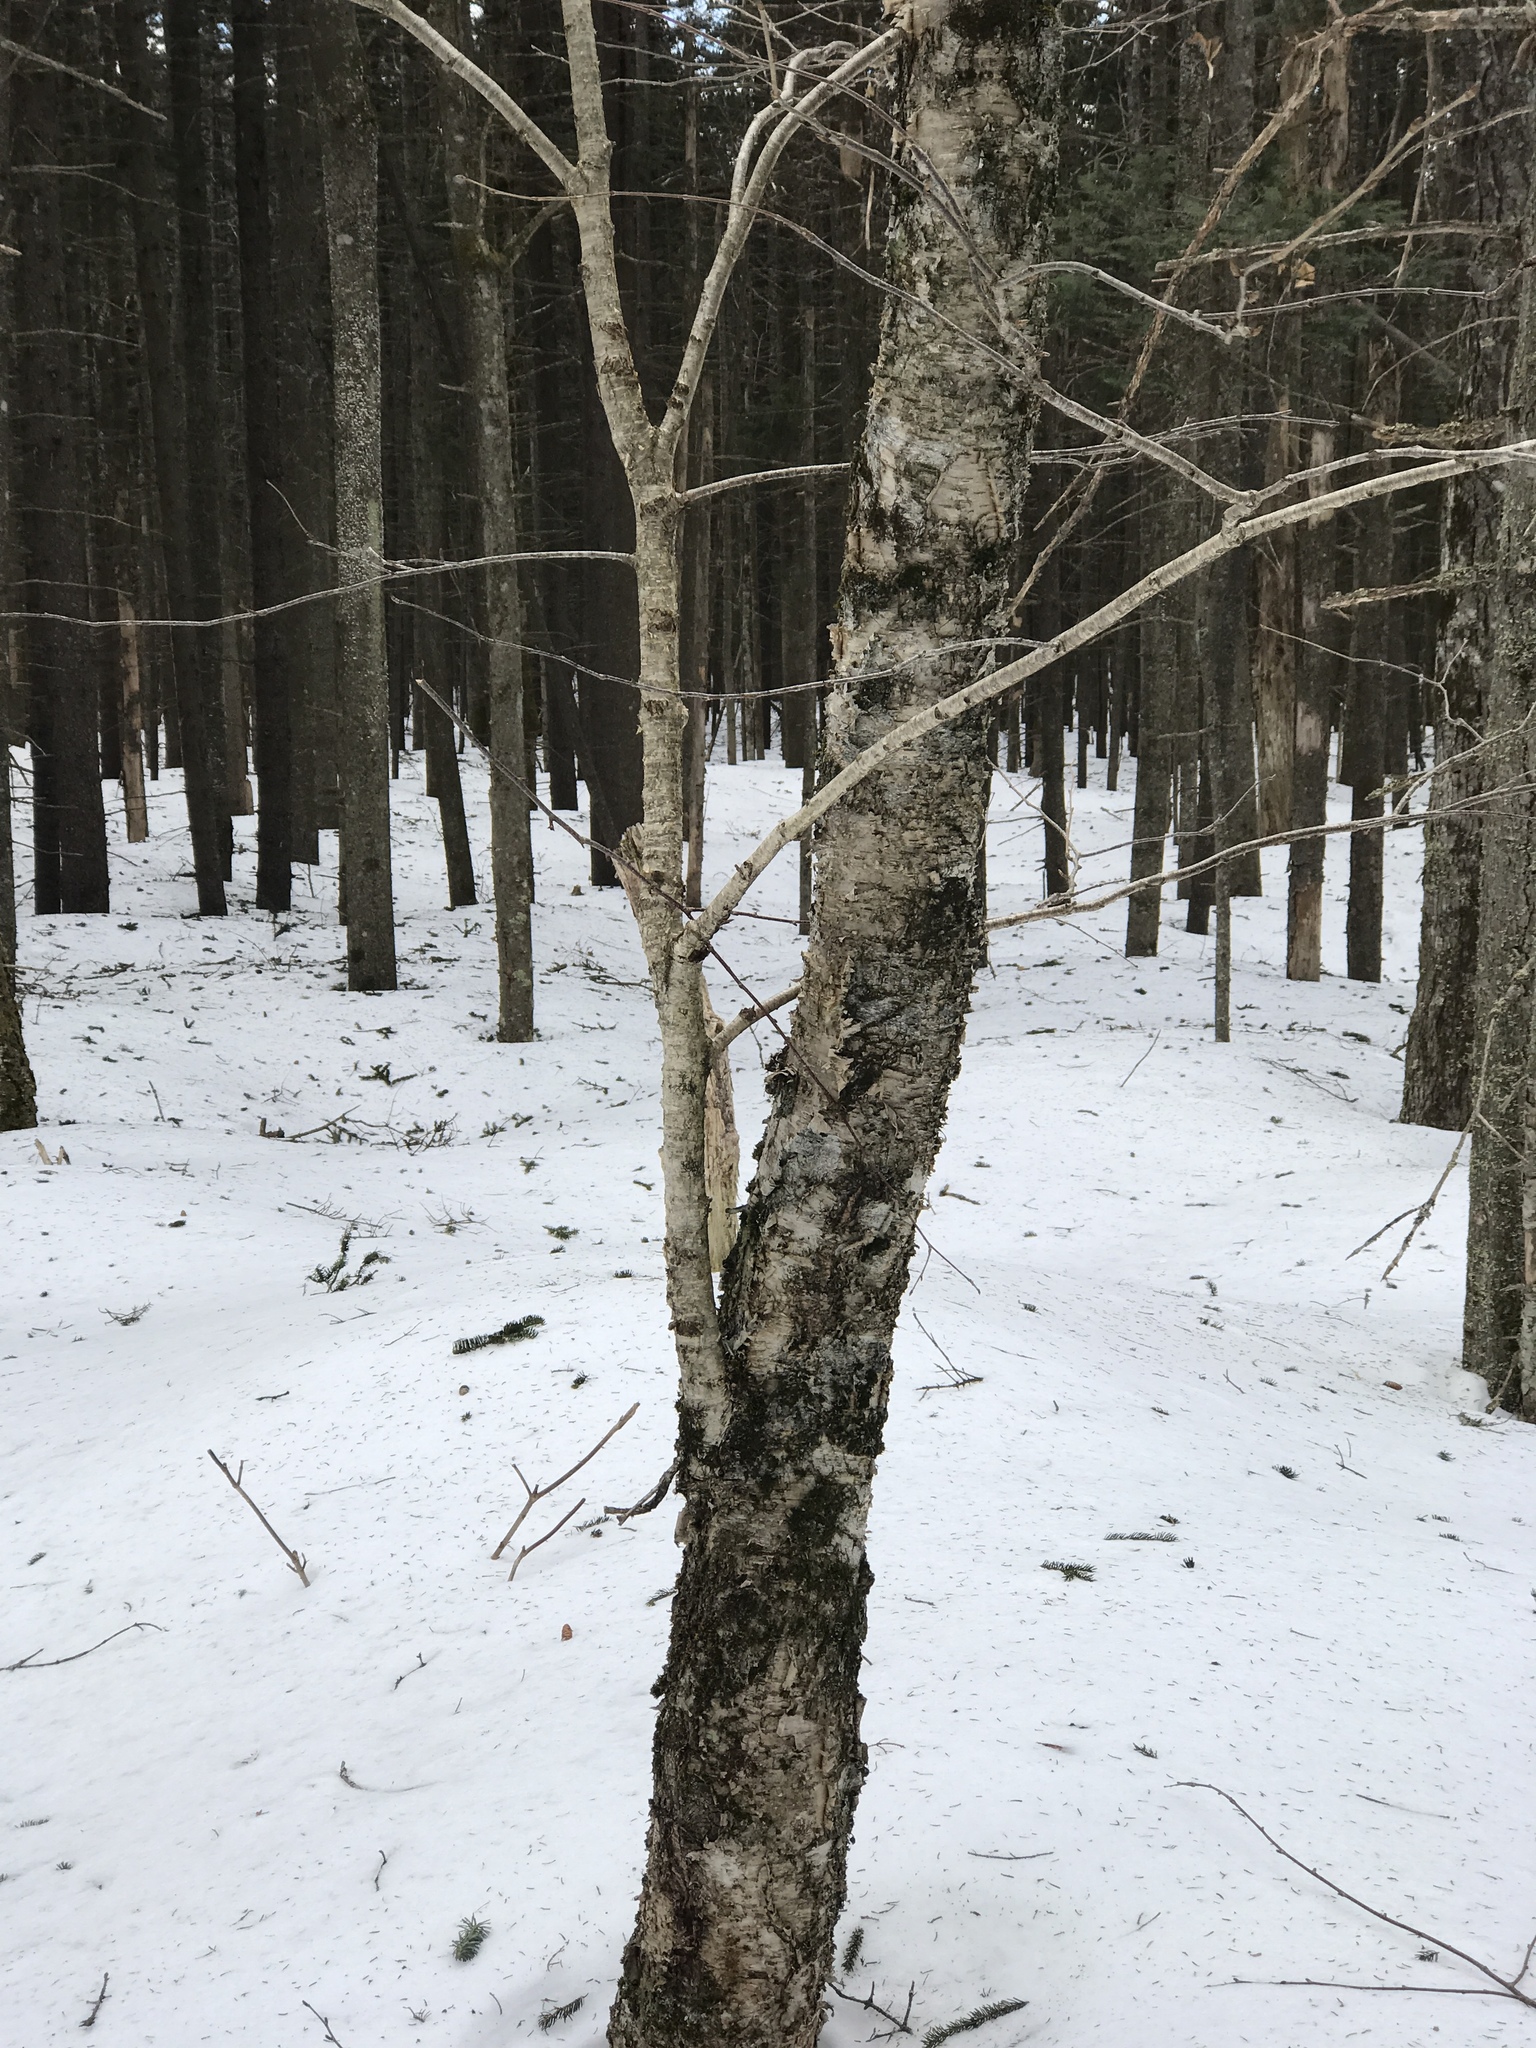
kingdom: Plantae
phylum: Tracheophyta
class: Magnoliopsida
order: Fagales
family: Betulaceae
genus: Betula
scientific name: Betula alleghaniensis
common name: Yellow birch
